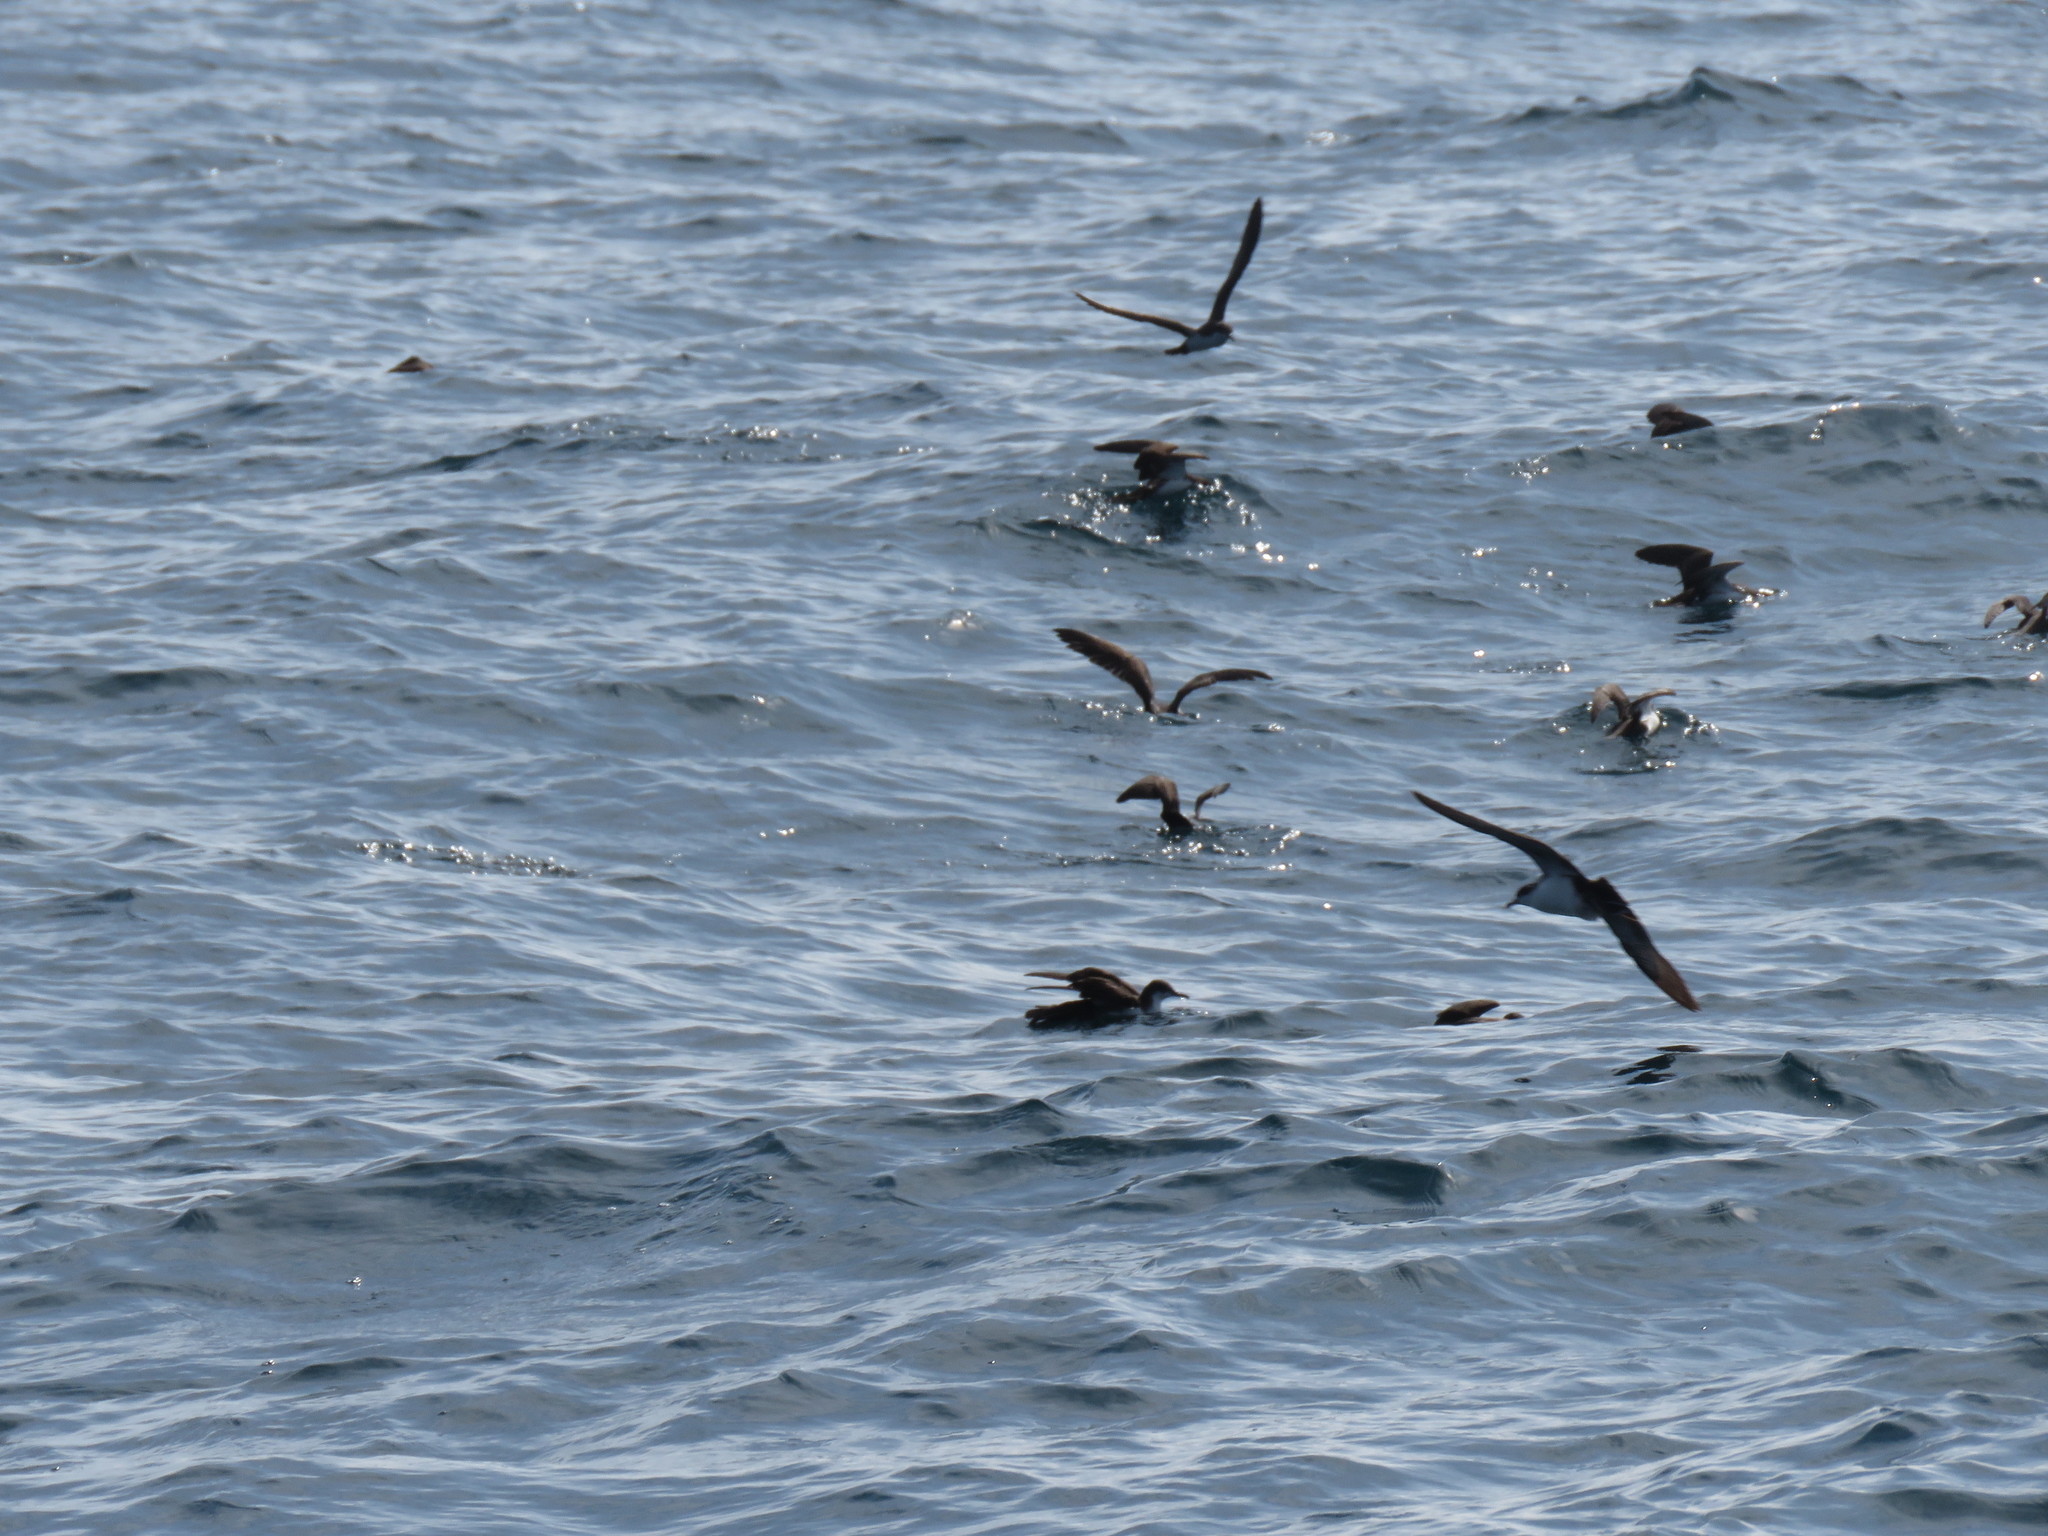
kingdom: Animalia
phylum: Chordata
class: Aves
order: Procellariiformes
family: Procellariidae
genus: Puffinus
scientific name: Puffinus subalaris
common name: Galapagos shearwater
